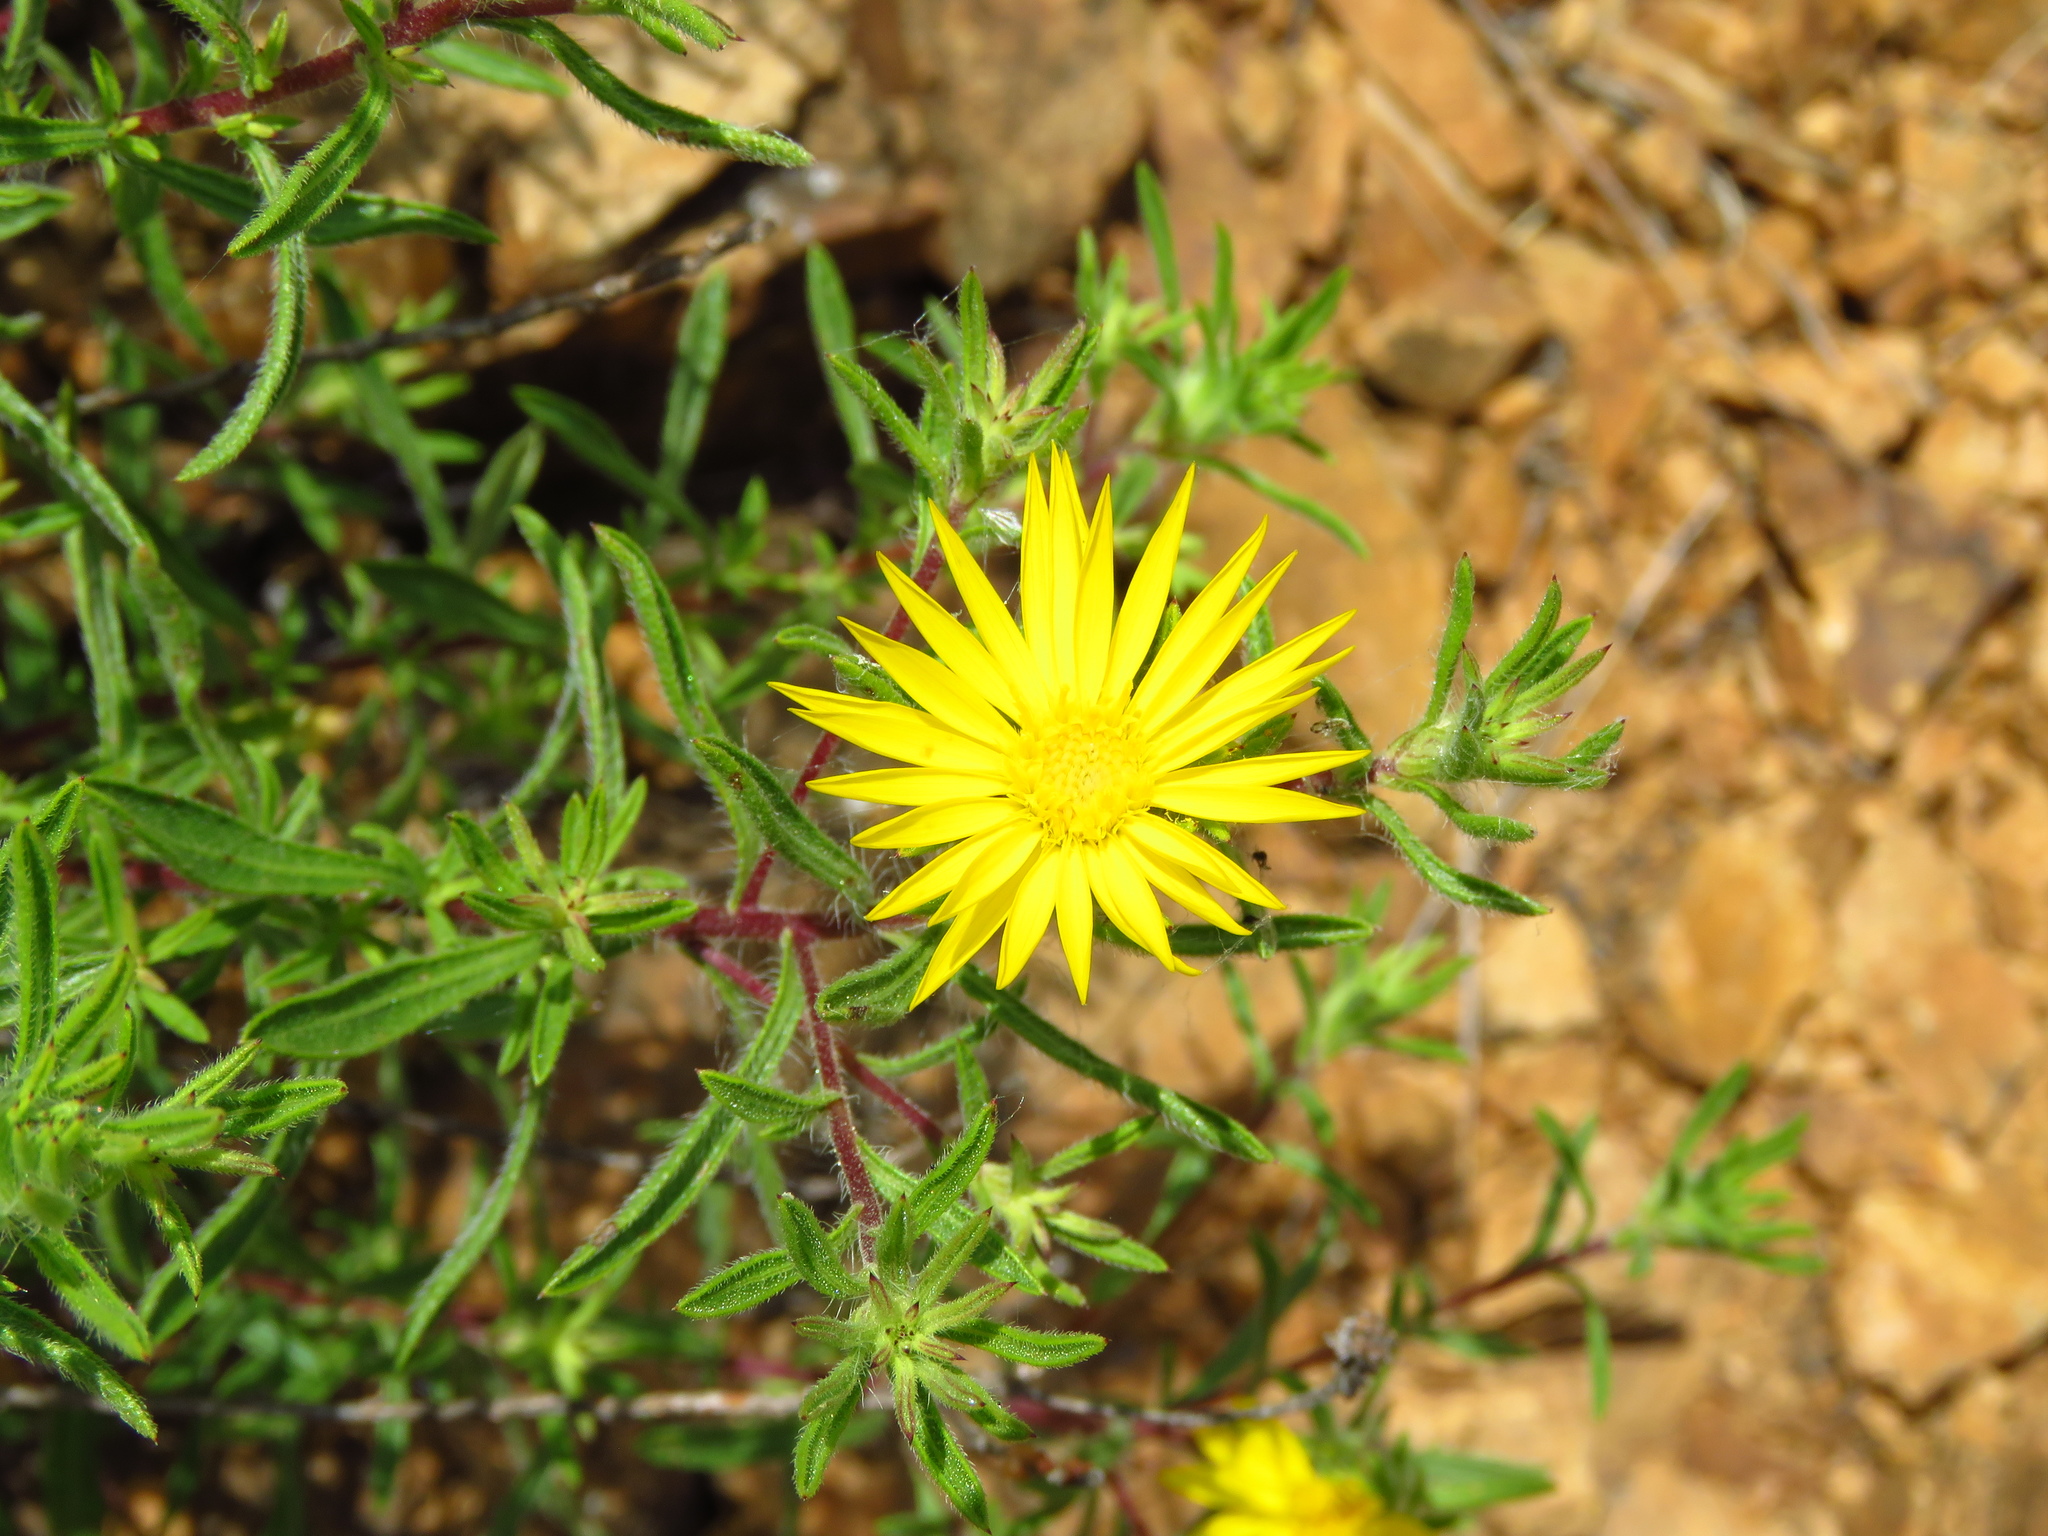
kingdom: Plantae
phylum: Tracheophyta
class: Magnoliopsida
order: Asterales
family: Asteraceae
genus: Heterotheca
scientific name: Heterotheca stenophylla
